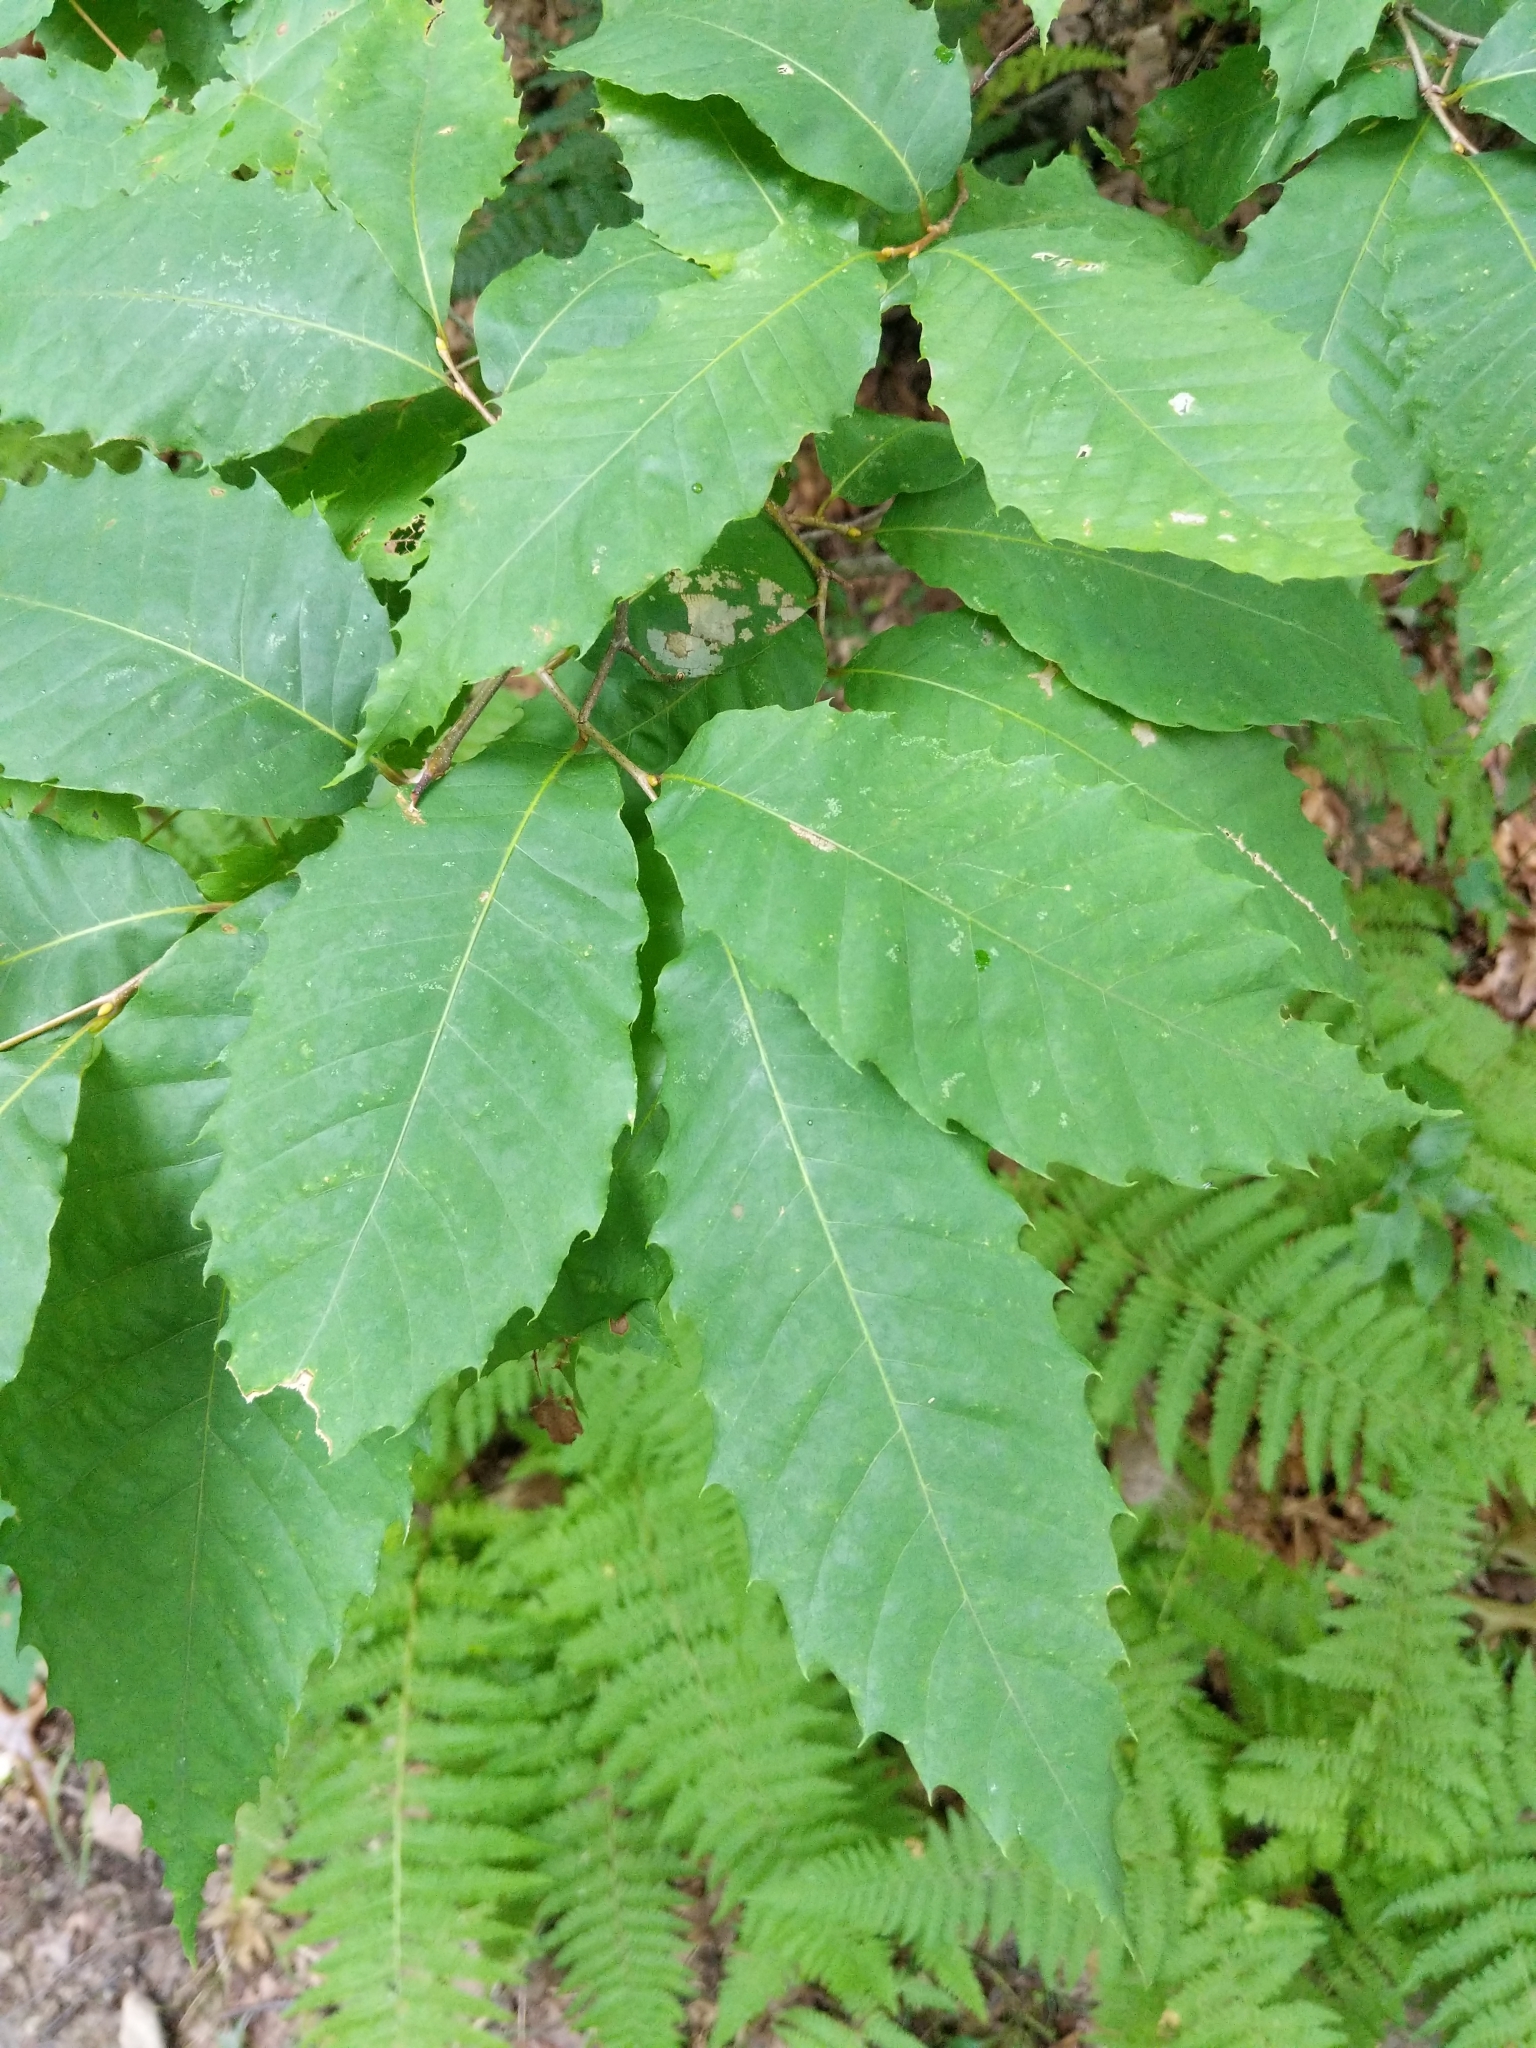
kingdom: Plantae
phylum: Tracheophyta
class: Magnoliopsida
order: Fagales
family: Fagaceae
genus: Castanea
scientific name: Castanea dentata
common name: American chestnut
